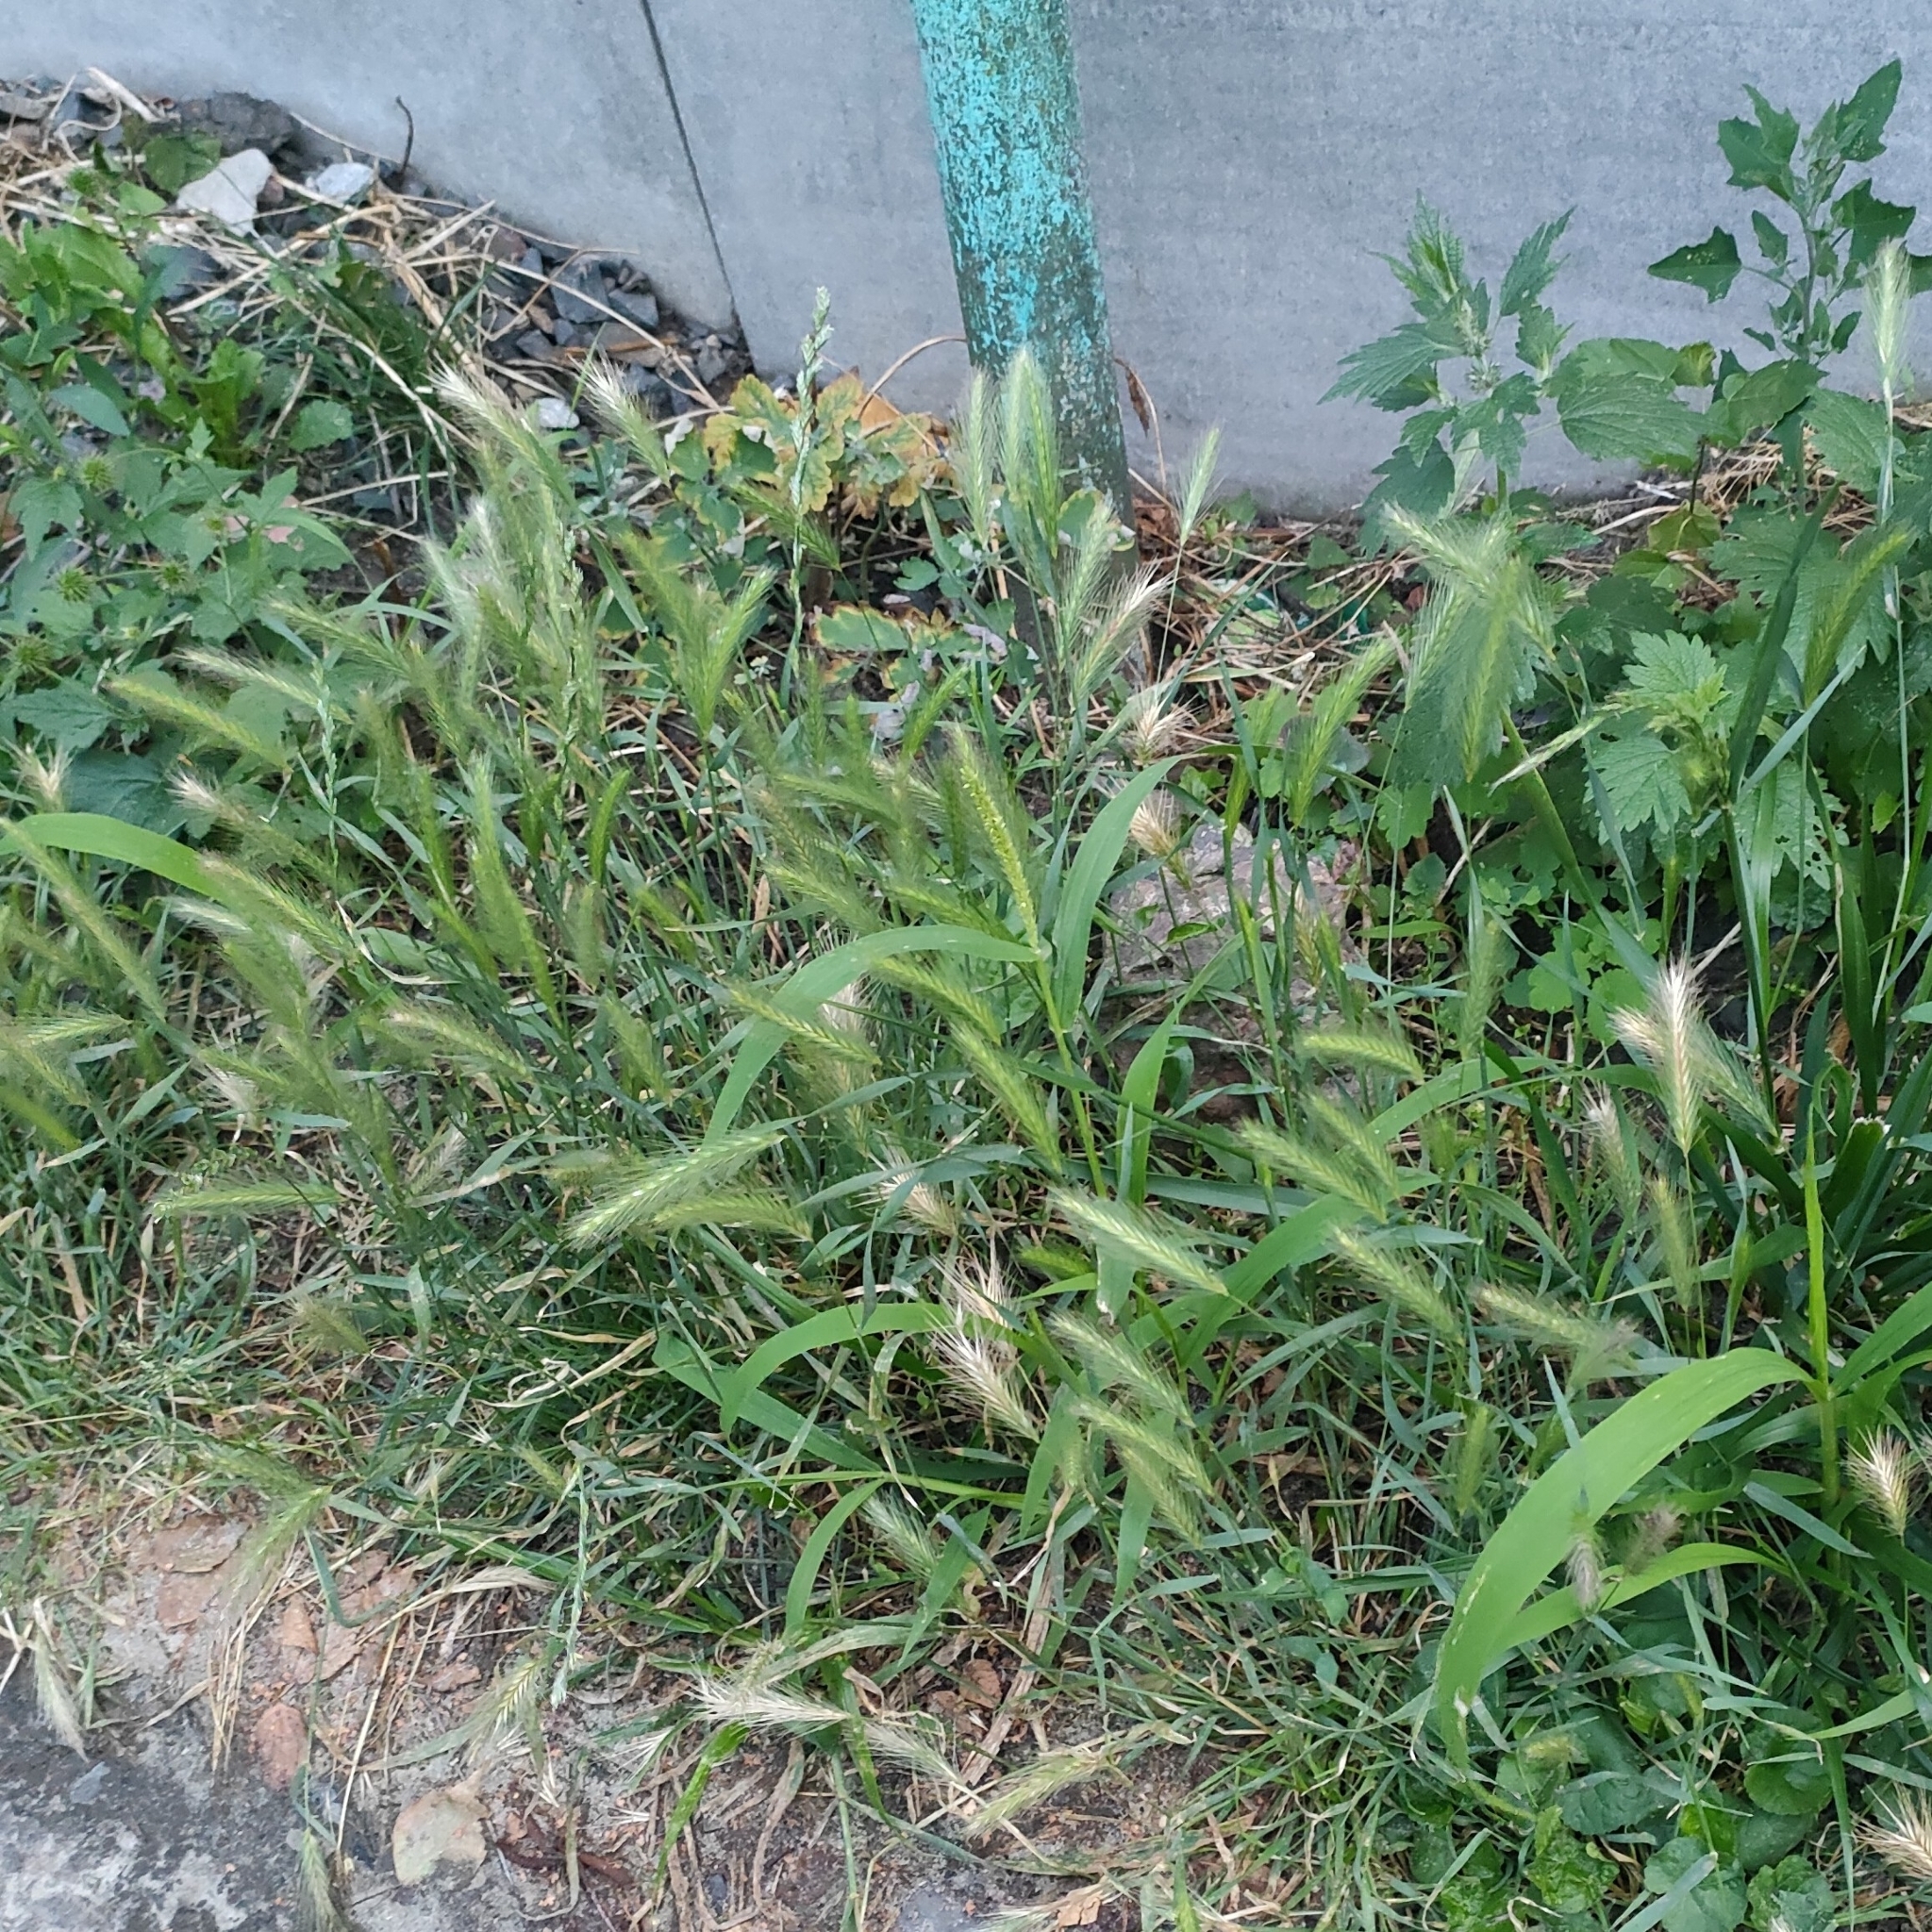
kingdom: Plantae
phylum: Tracheophyta
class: Liliopsida
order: Poales
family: Poaceae
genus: Hordeum
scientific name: Hordeum murinum
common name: Wall barley
